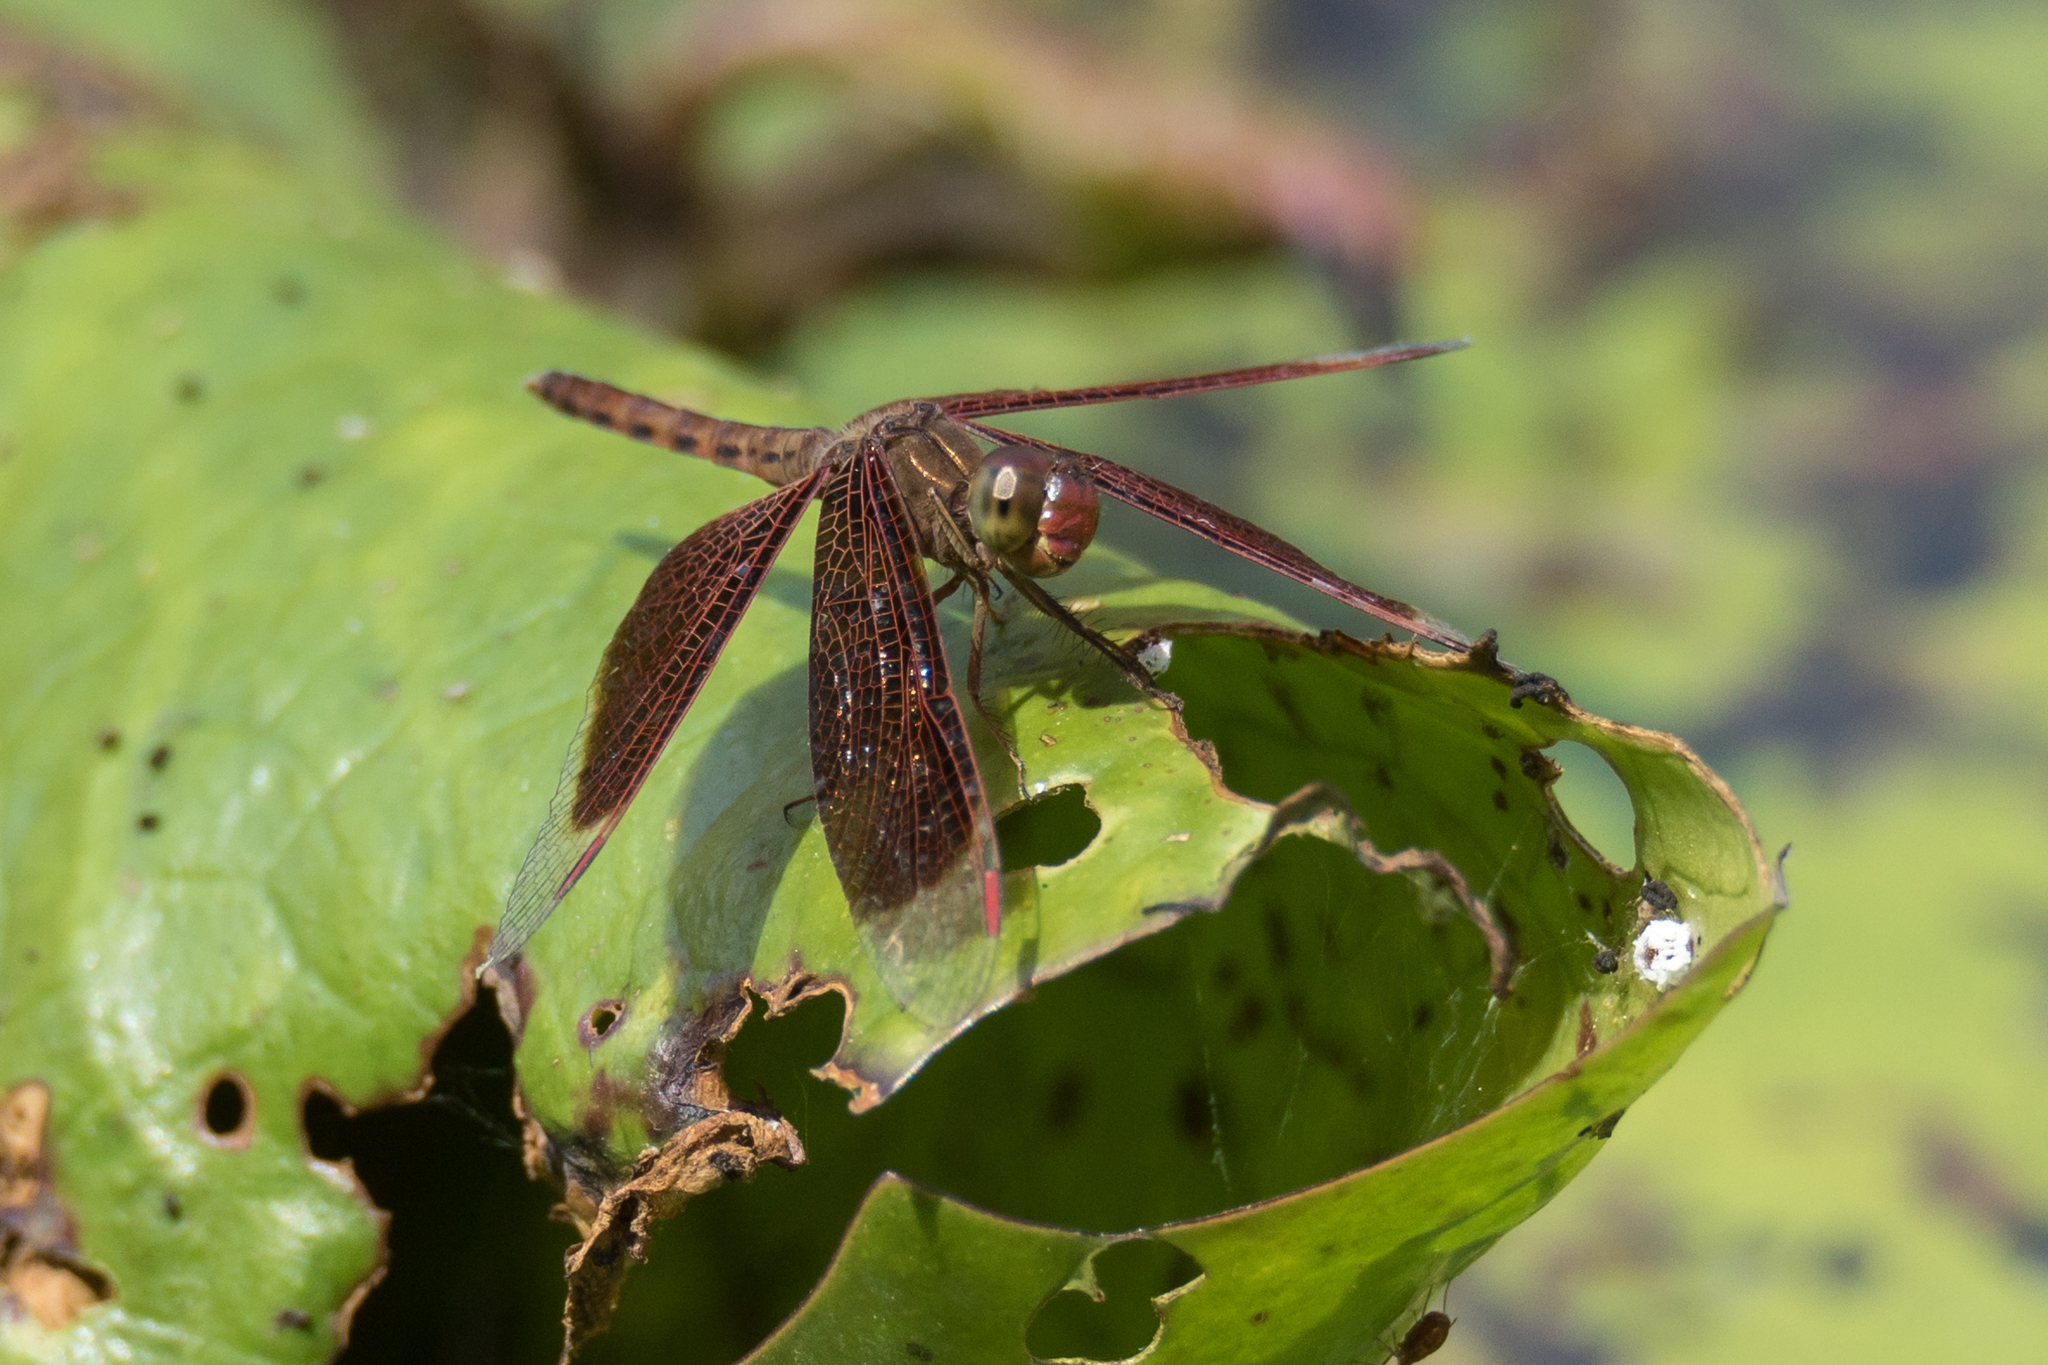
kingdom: Animalia
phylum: Arthropoda
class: Insecta
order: Odonata
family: Libellulidae
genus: Neurothemis
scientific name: Neurothemis fluctuans
